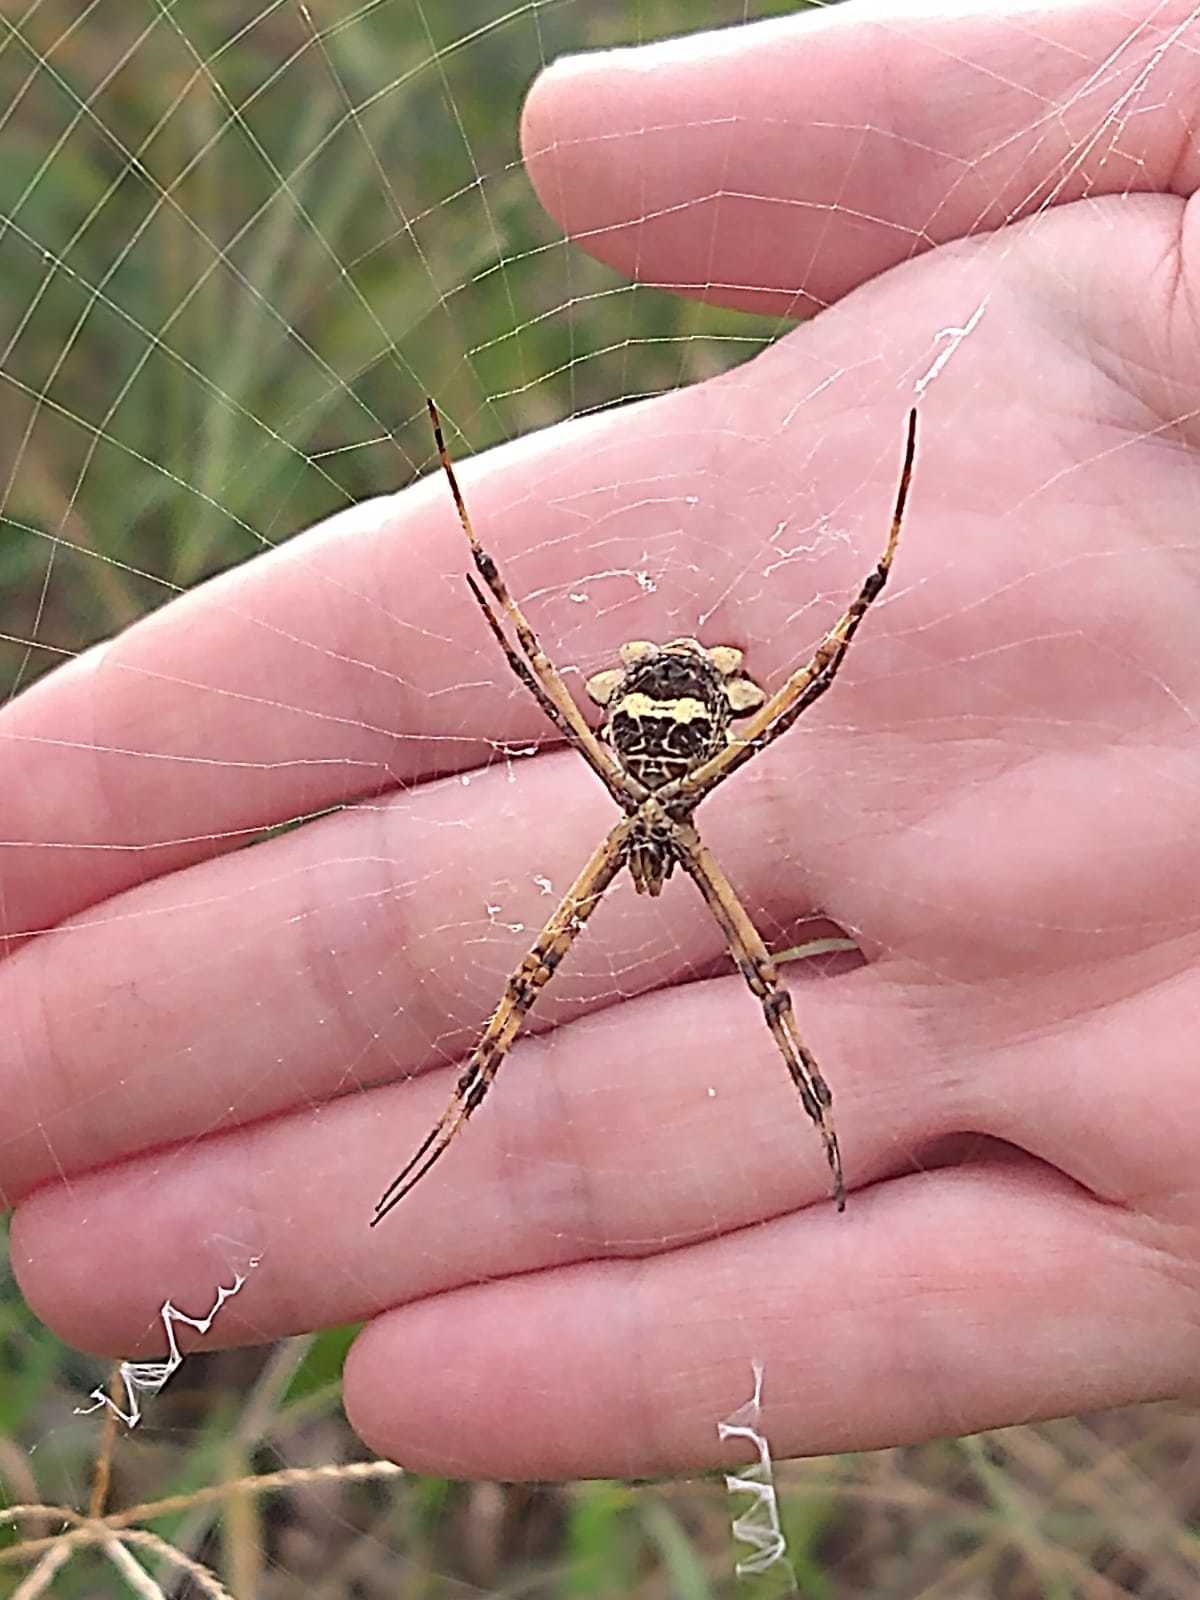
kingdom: Animalia
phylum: Arthropoda
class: Arachnida
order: Araneae
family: Araneidae
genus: Argiope
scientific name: Argiope argentata
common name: Orb weavers
